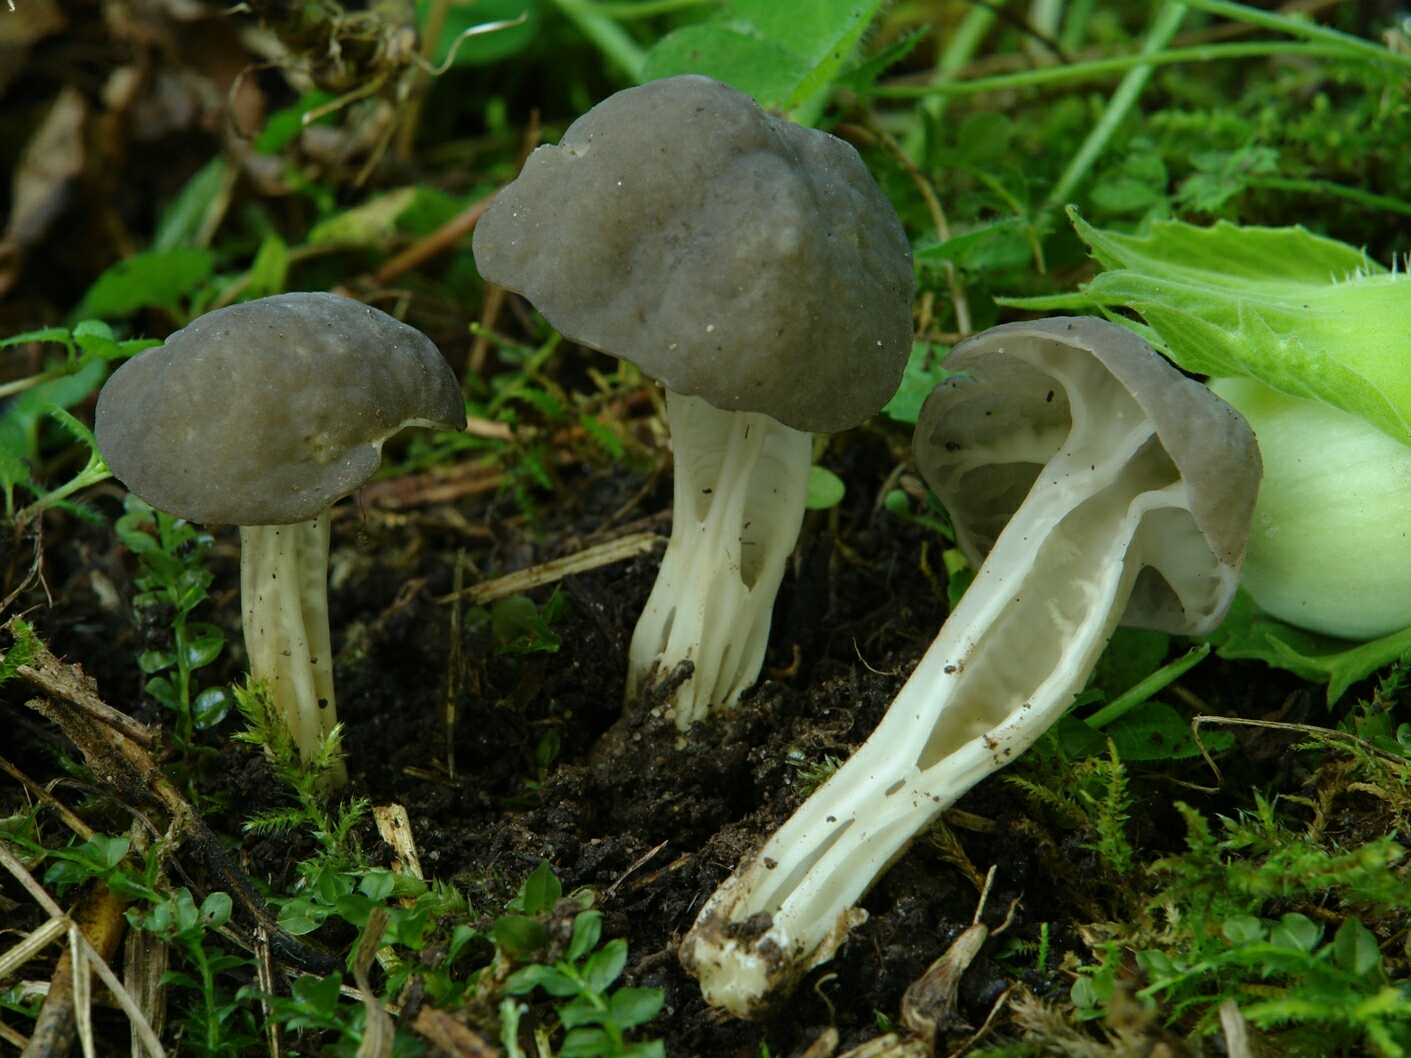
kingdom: Fungi
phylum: Ascomycota
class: Pezizomycetes
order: Pezizales
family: Helvellaceae
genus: Helvella
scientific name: Helvella phlebophora
